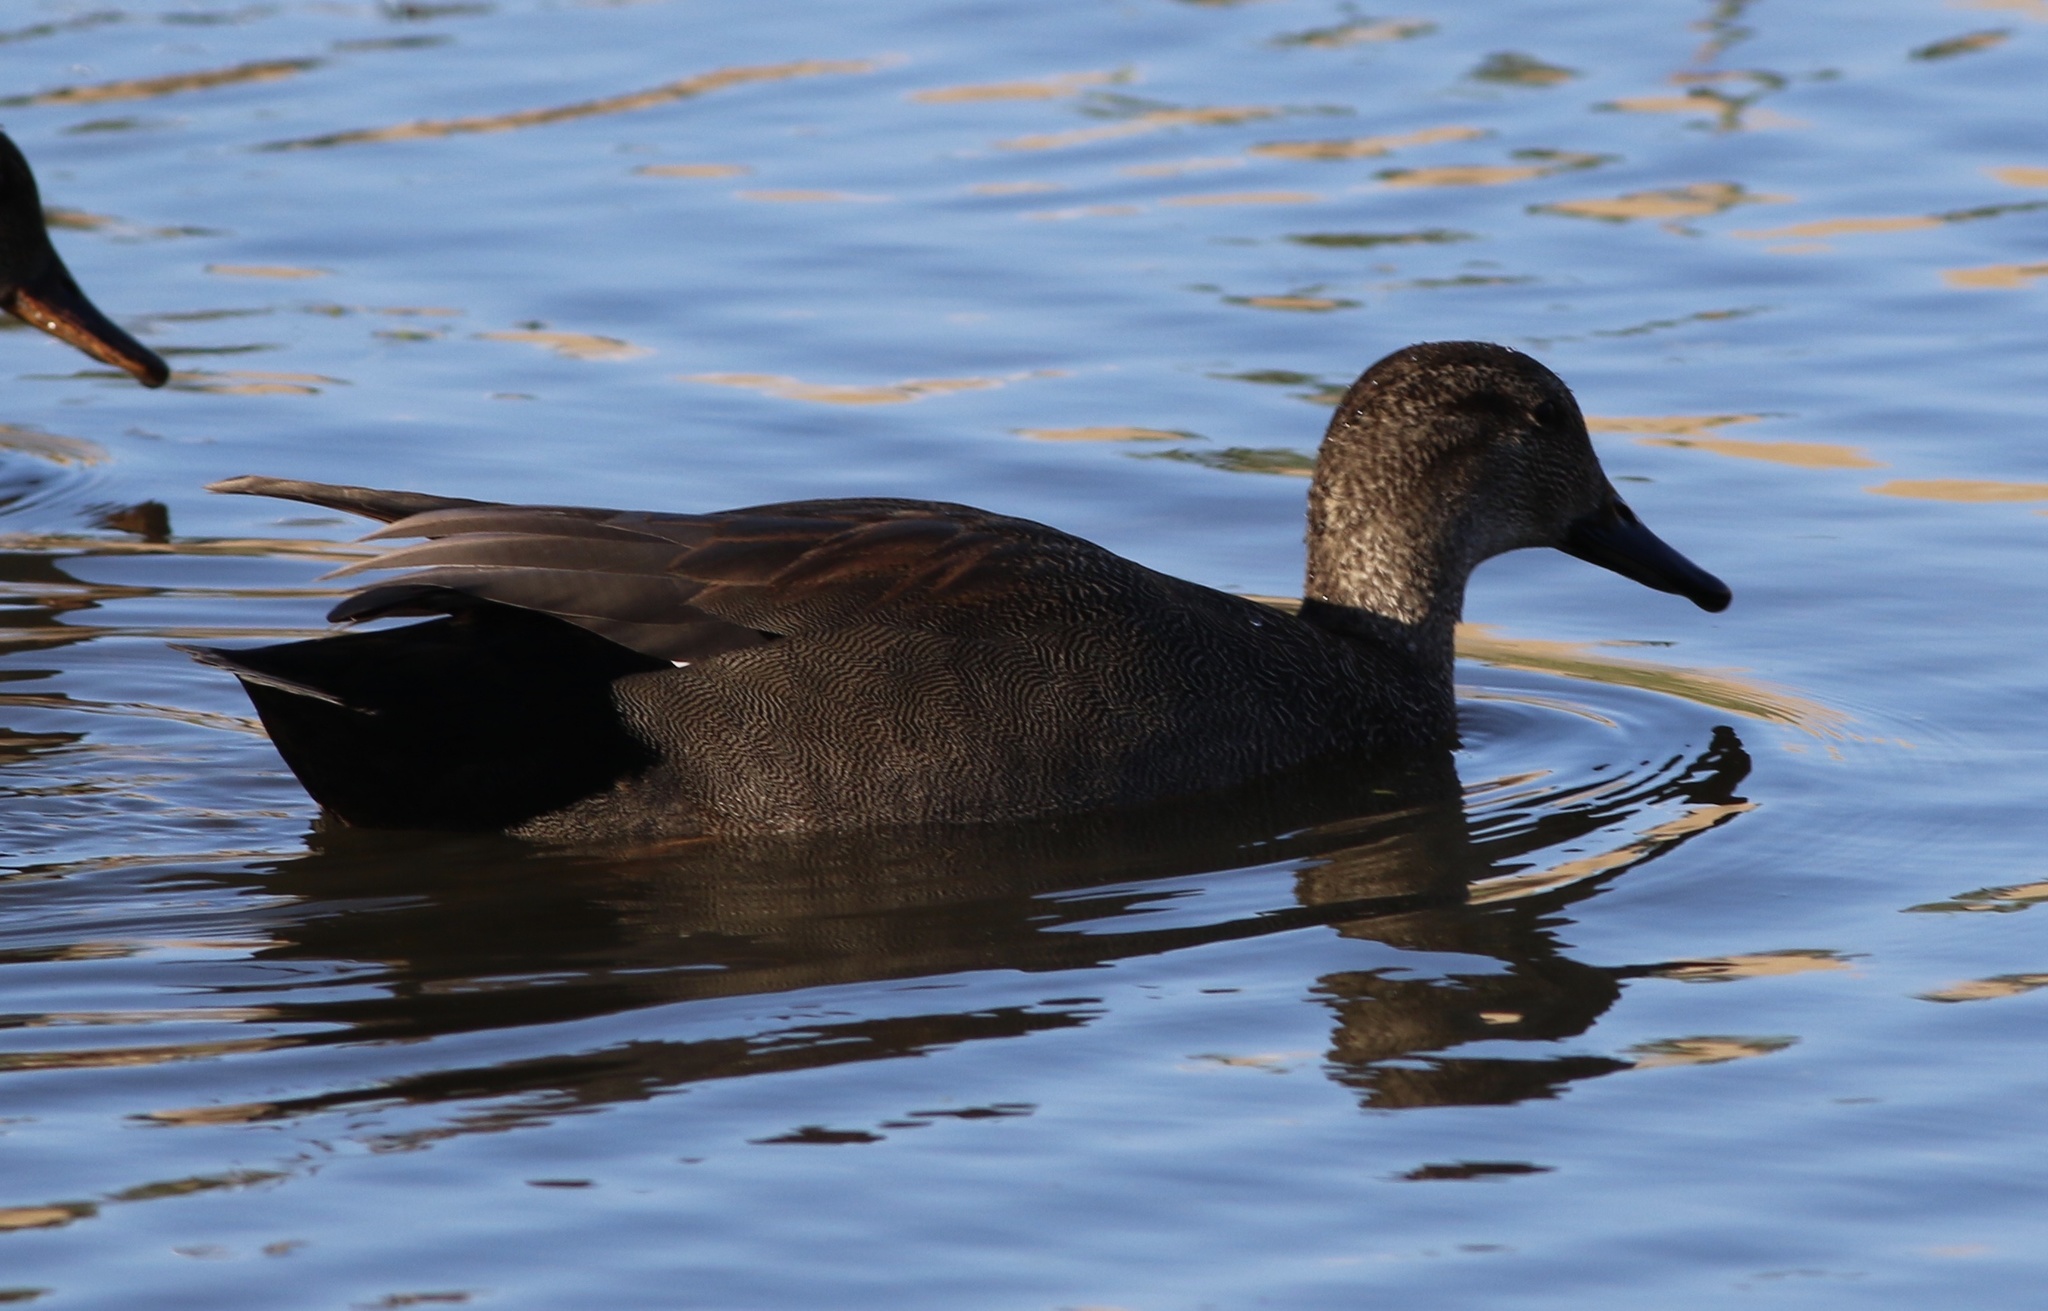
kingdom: Animalia
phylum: Chordata
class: Aves
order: Anseriformes
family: Anatidae
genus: Mareca
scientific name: Mareca strepera
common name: Gadwall
